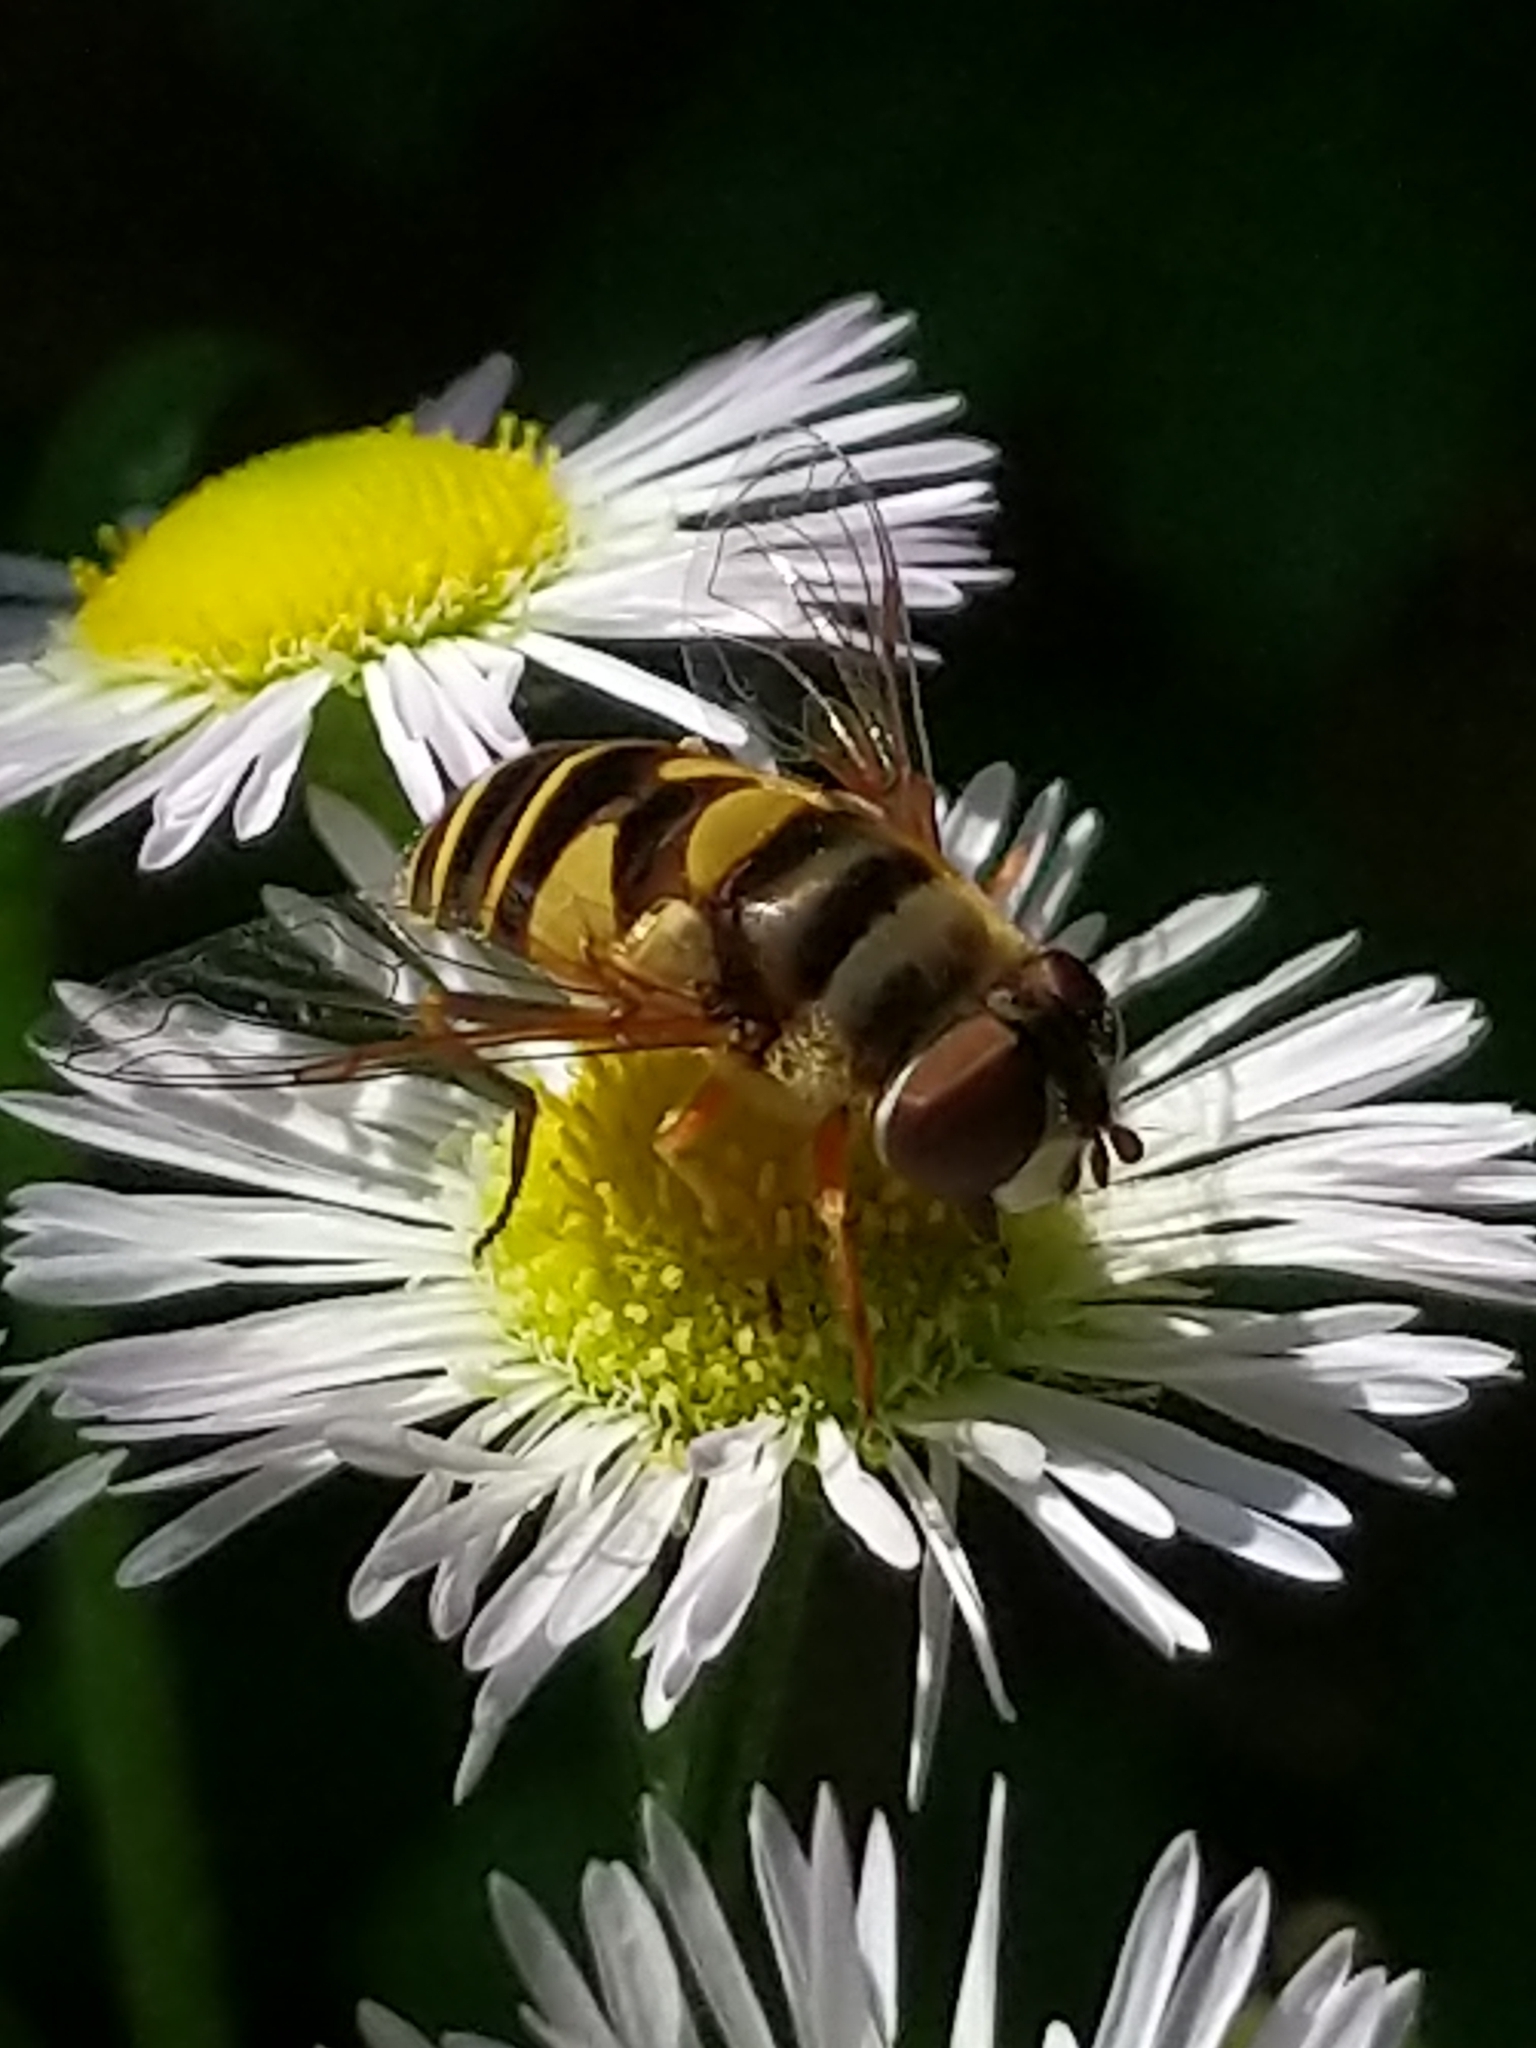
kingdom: Animalia
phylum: Arthropoda
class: Insecta
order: Diptera
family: Syrphidae
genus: Eristalis
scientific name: Eristalis transversa
